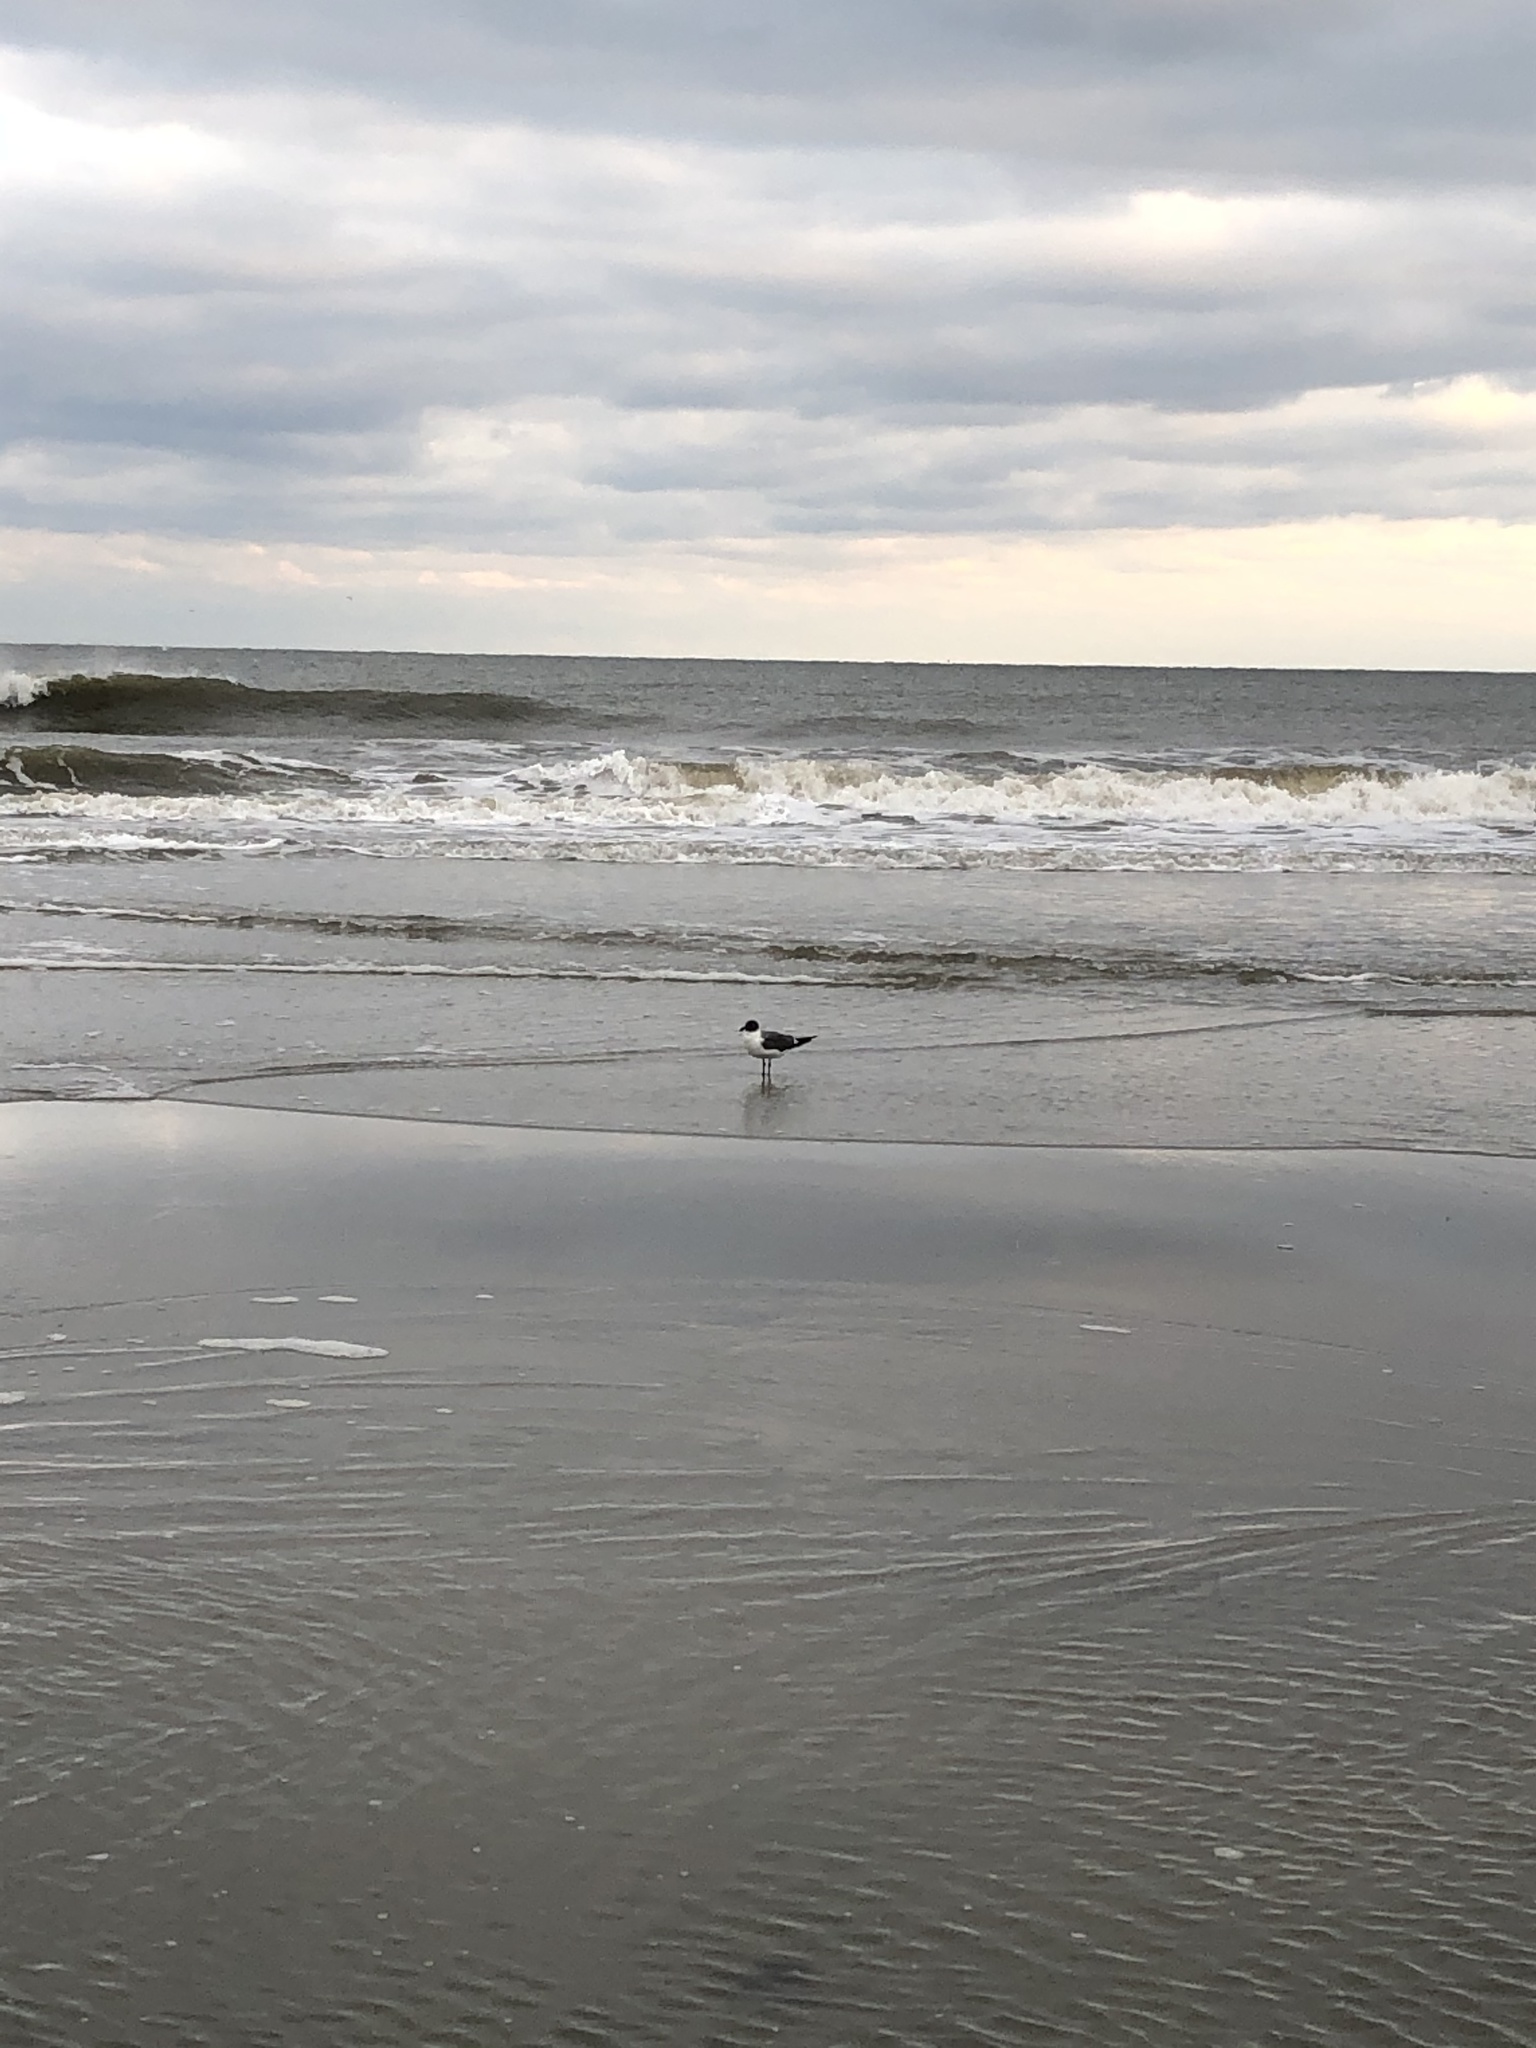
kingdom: Animalia
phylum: Chordata
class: Aves
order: Charadriiformes
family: Laridae
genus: Leucophaeus
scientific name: Leucophaeus atricilla
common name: Laughing gull
